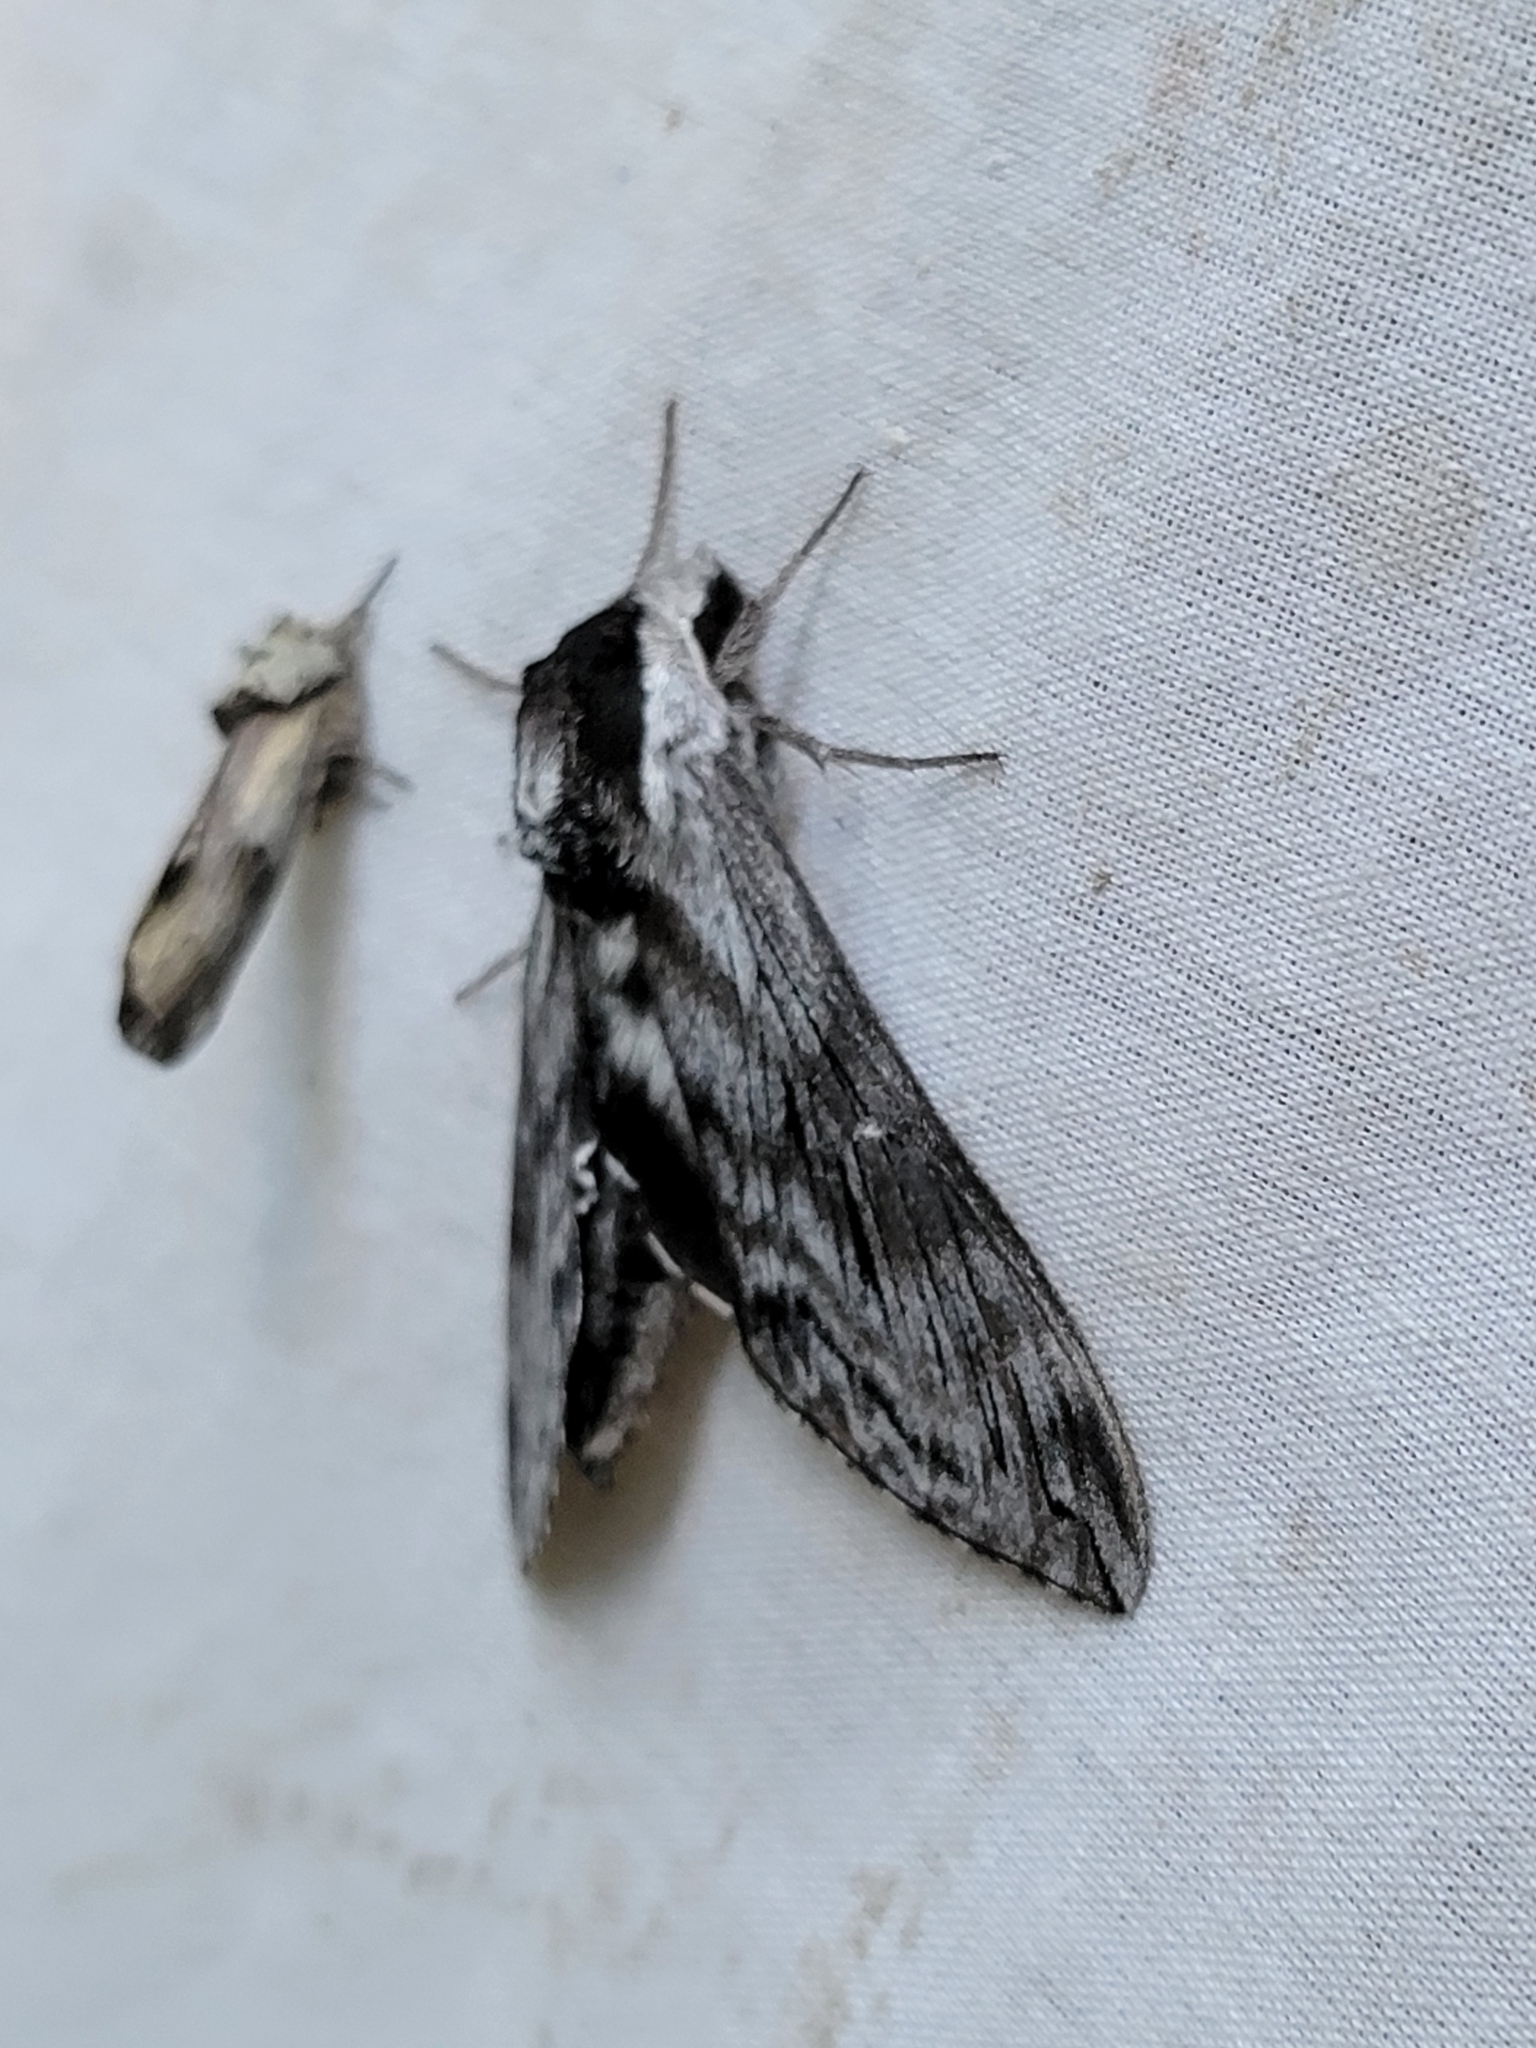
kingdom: Animalia
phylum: Arthropoda
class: Insecta
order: Lepidoptera
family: Sphingidae
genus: Sphinx
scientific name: Sphinx poecila
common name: Northern apple sphinx
